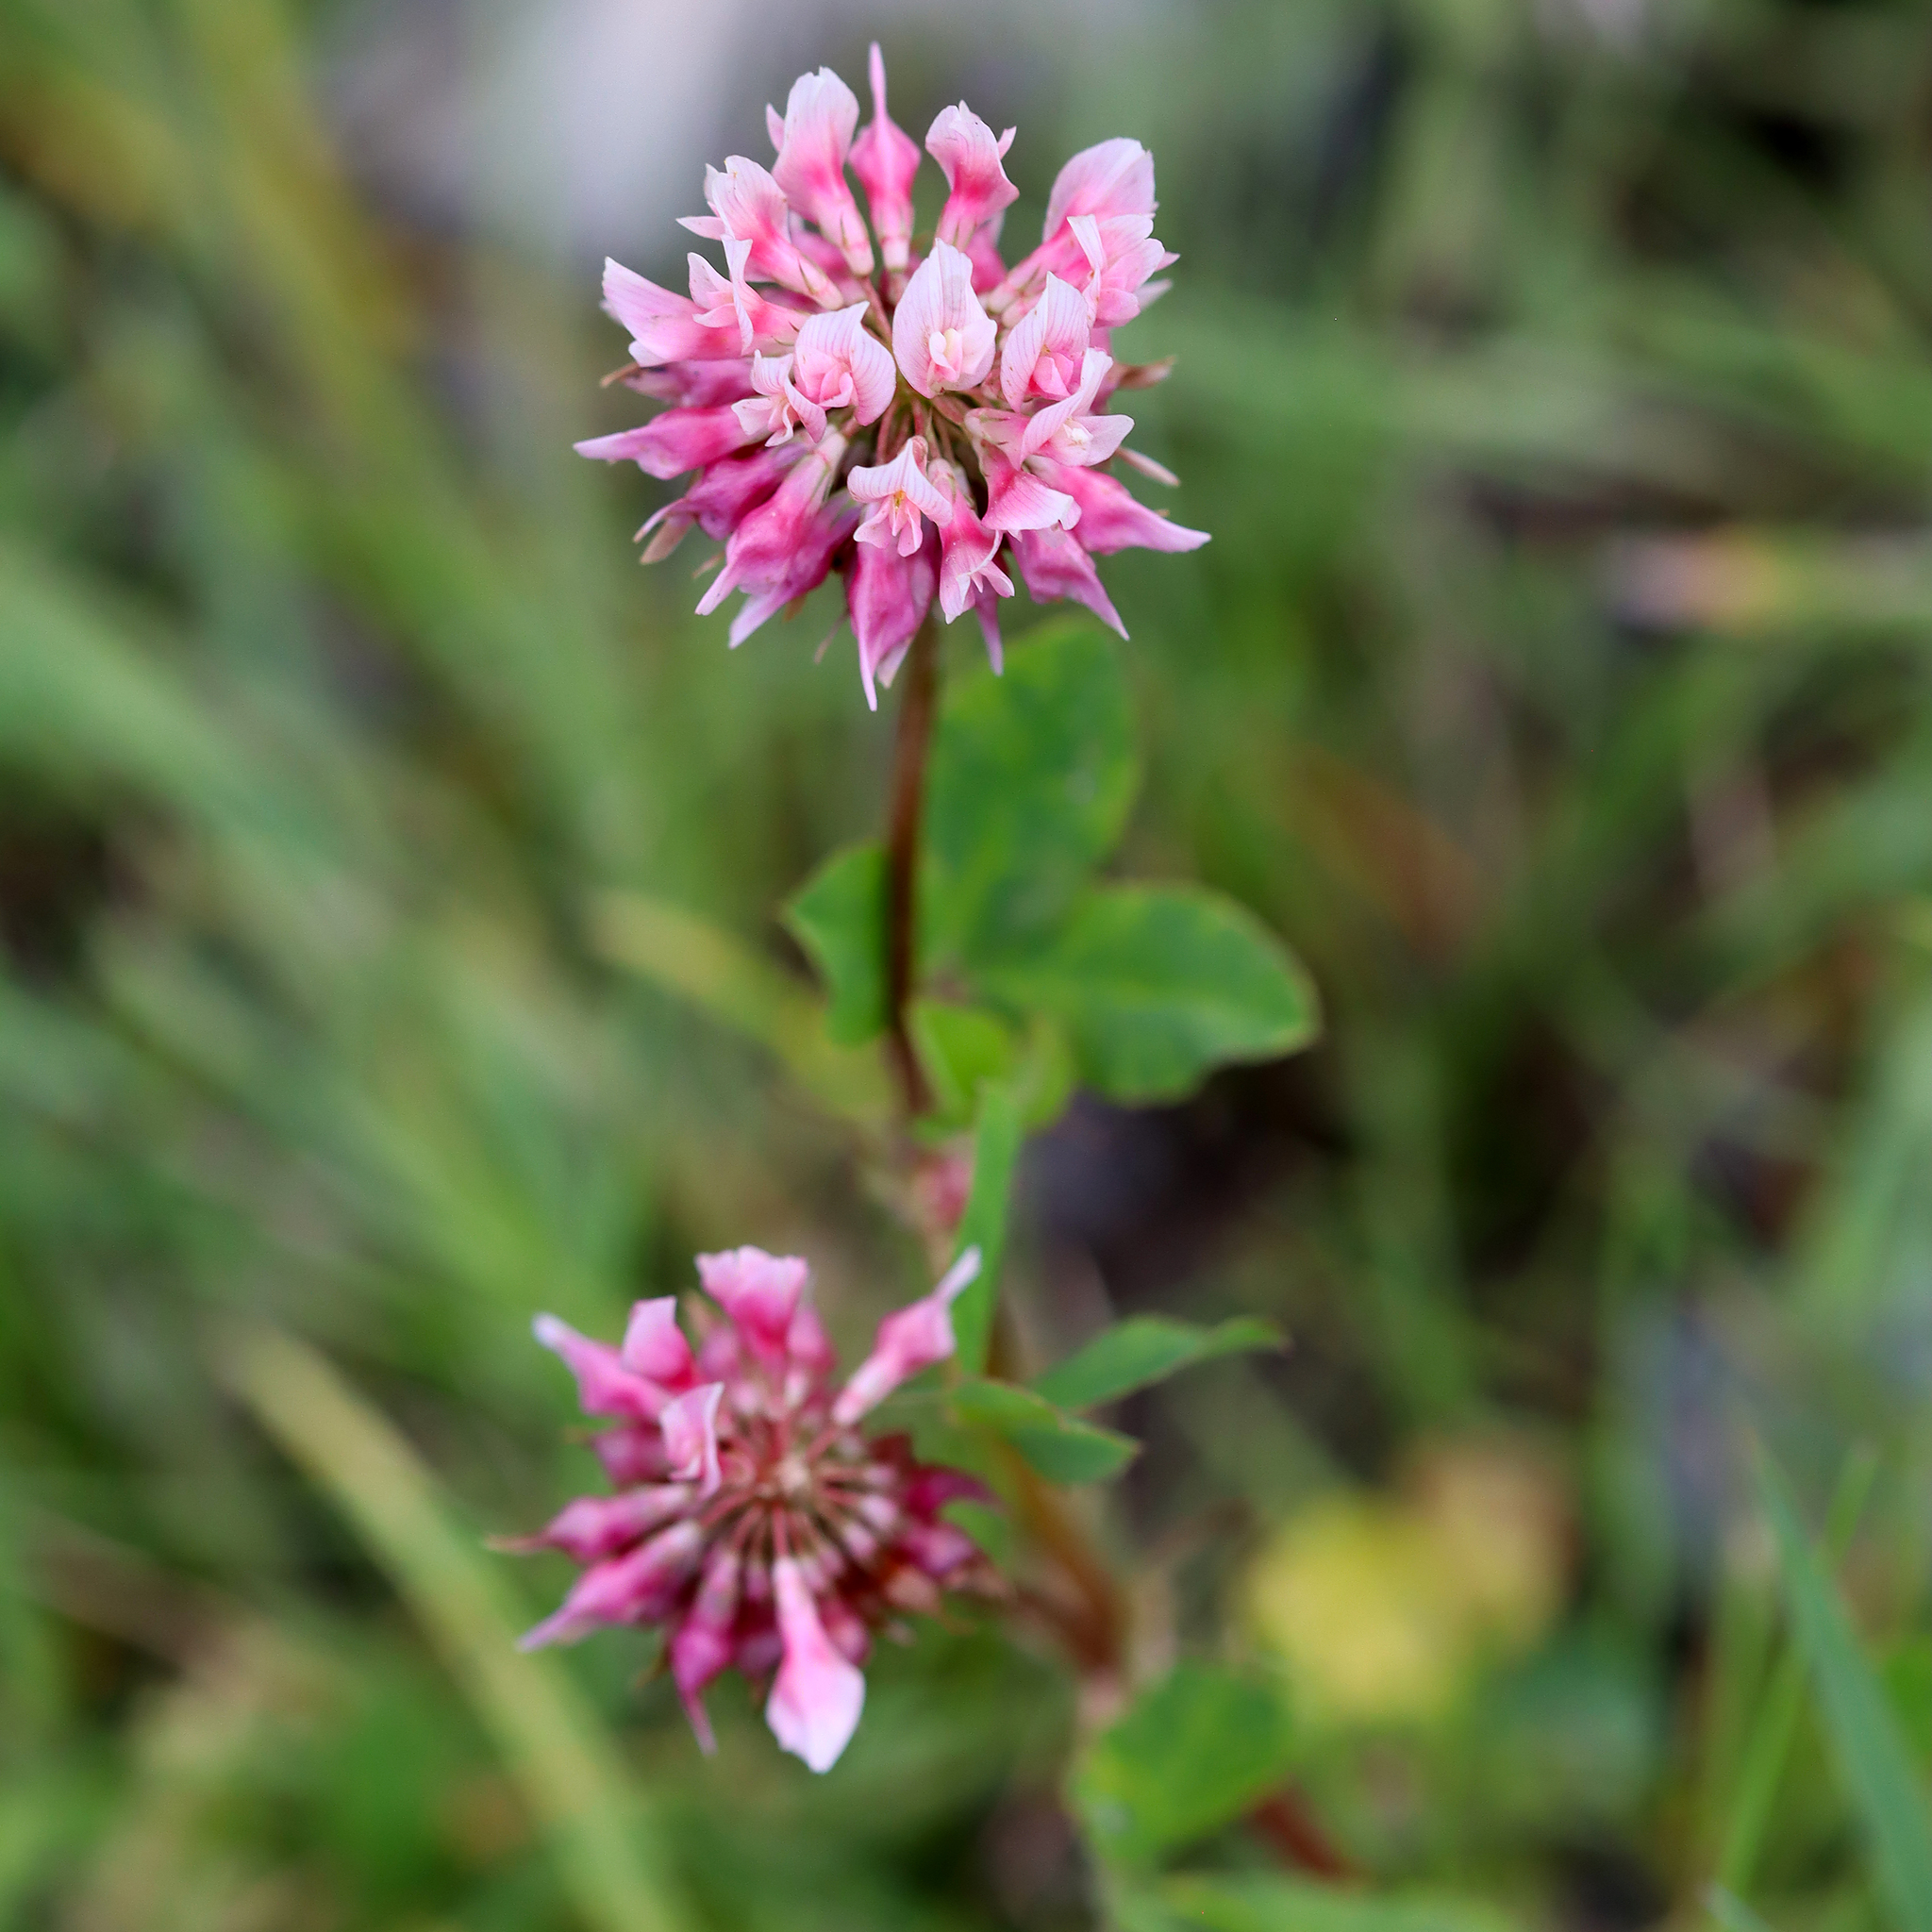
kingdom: Plantae
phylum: Tracheophyta
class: Magnoliopsida
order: Fabales
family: Fabaceae
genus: Trifolium
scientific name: Trifolium hybridum
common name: Alsike clover
